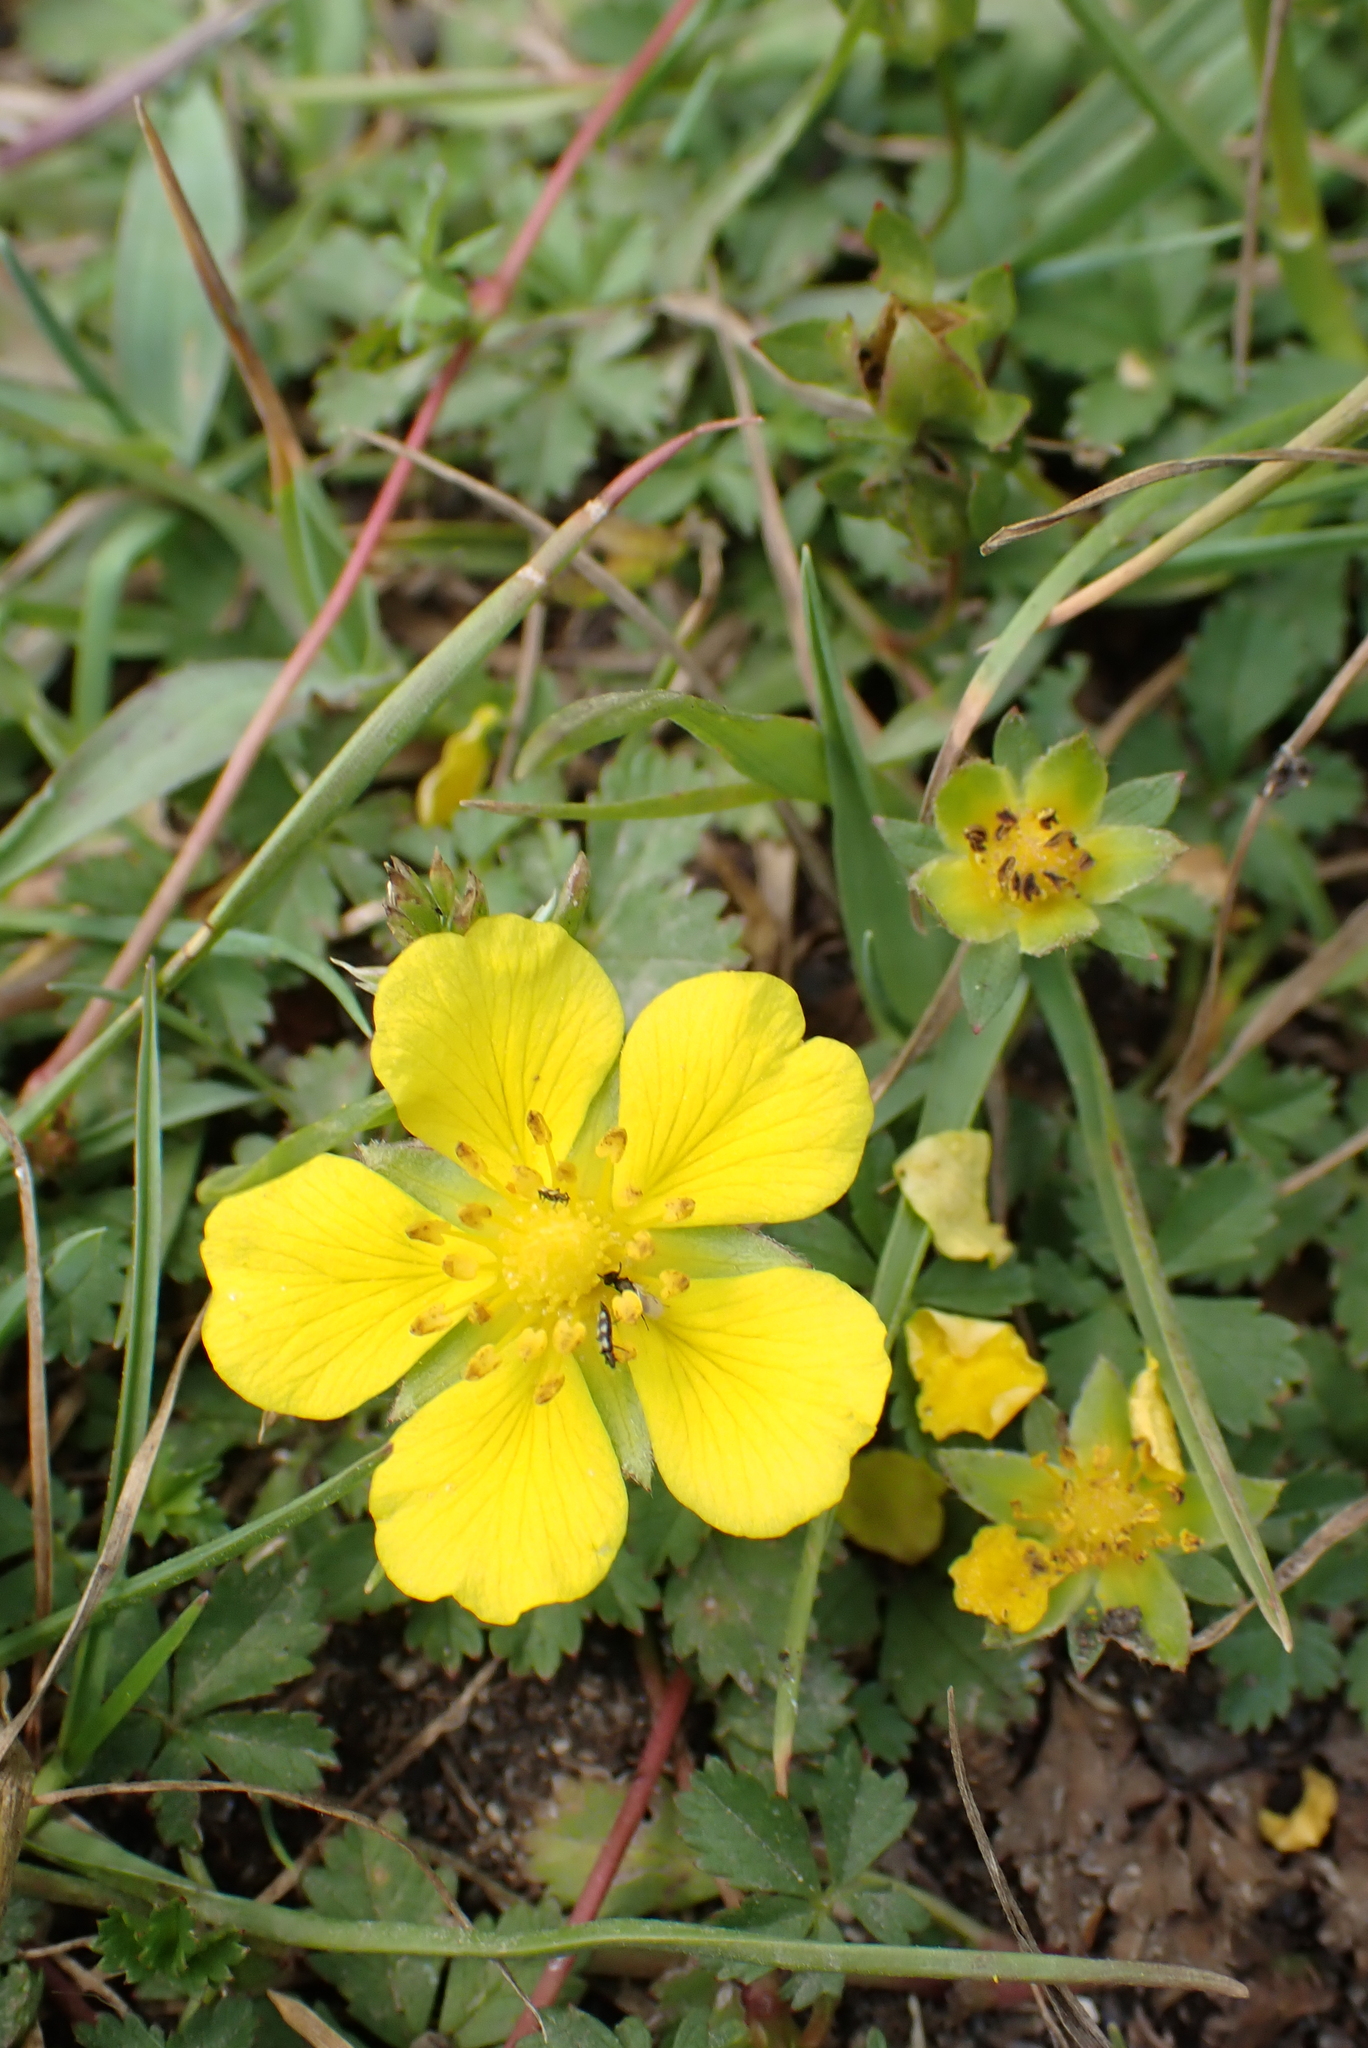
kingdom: Plantae
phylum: Tracheophyta
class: Magnoliopsida
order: Rosales
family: Rosaceae
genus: Potentilla
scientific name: Potentilla reptans
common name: Creeping cinquefoil
